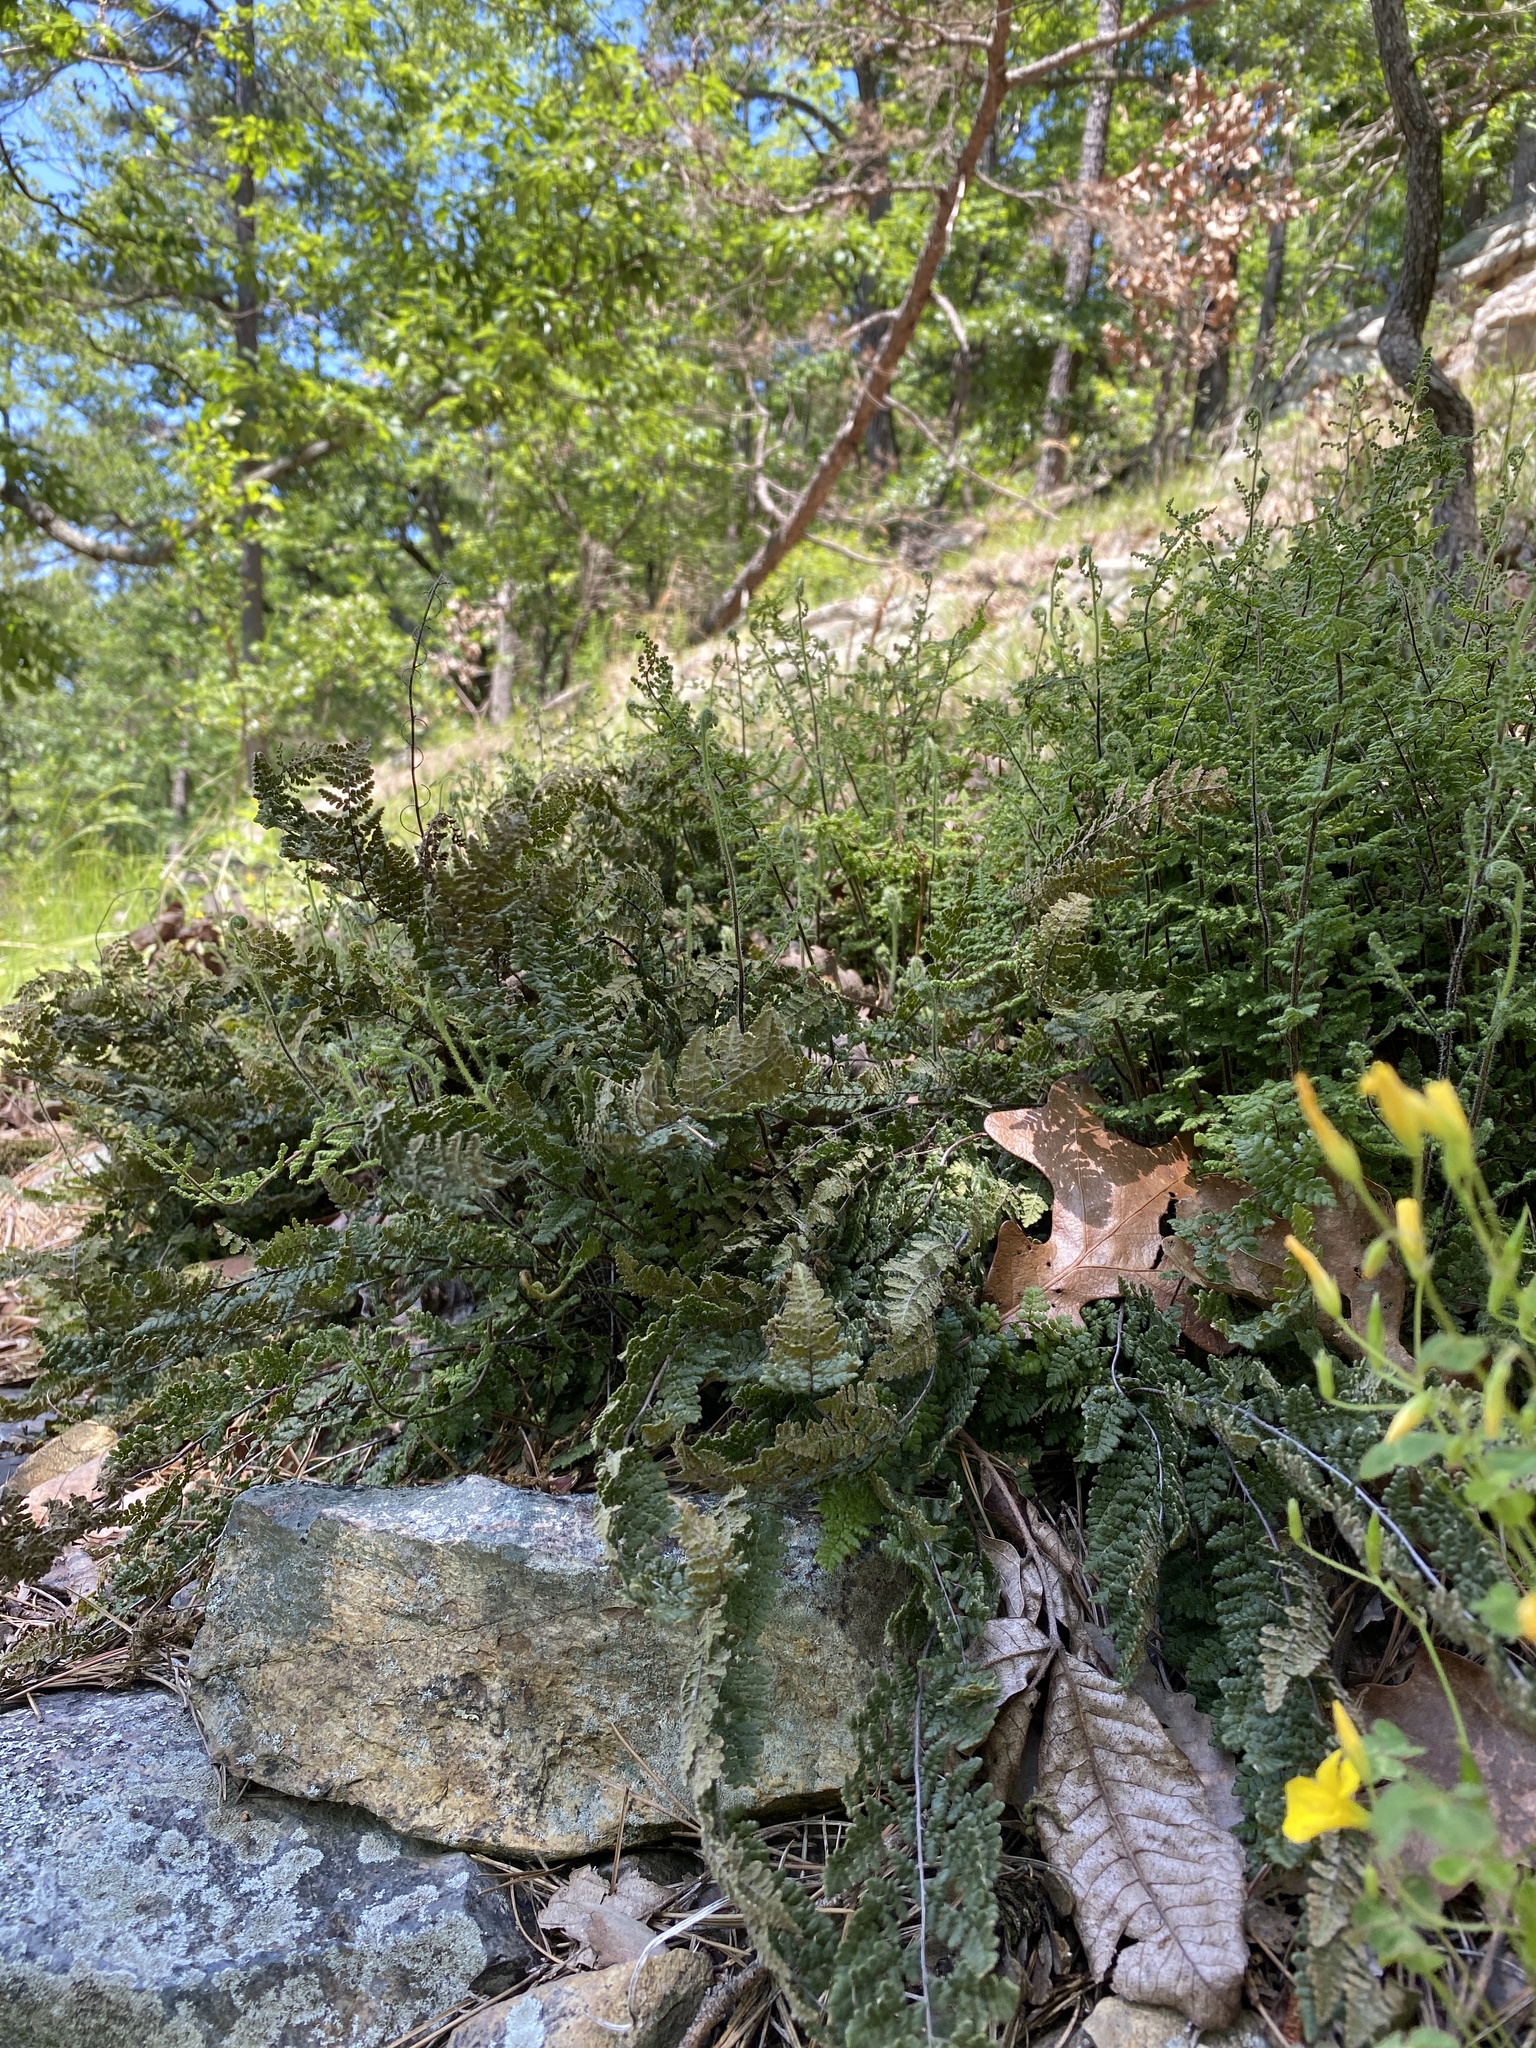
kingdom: Plantae
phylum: Tracheophyta
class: Polypodiopsida
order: Polypodiales
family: Pteridaceae
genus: Myriopteris
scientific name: Myriopteris lanosa
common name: Hairy lip fern
